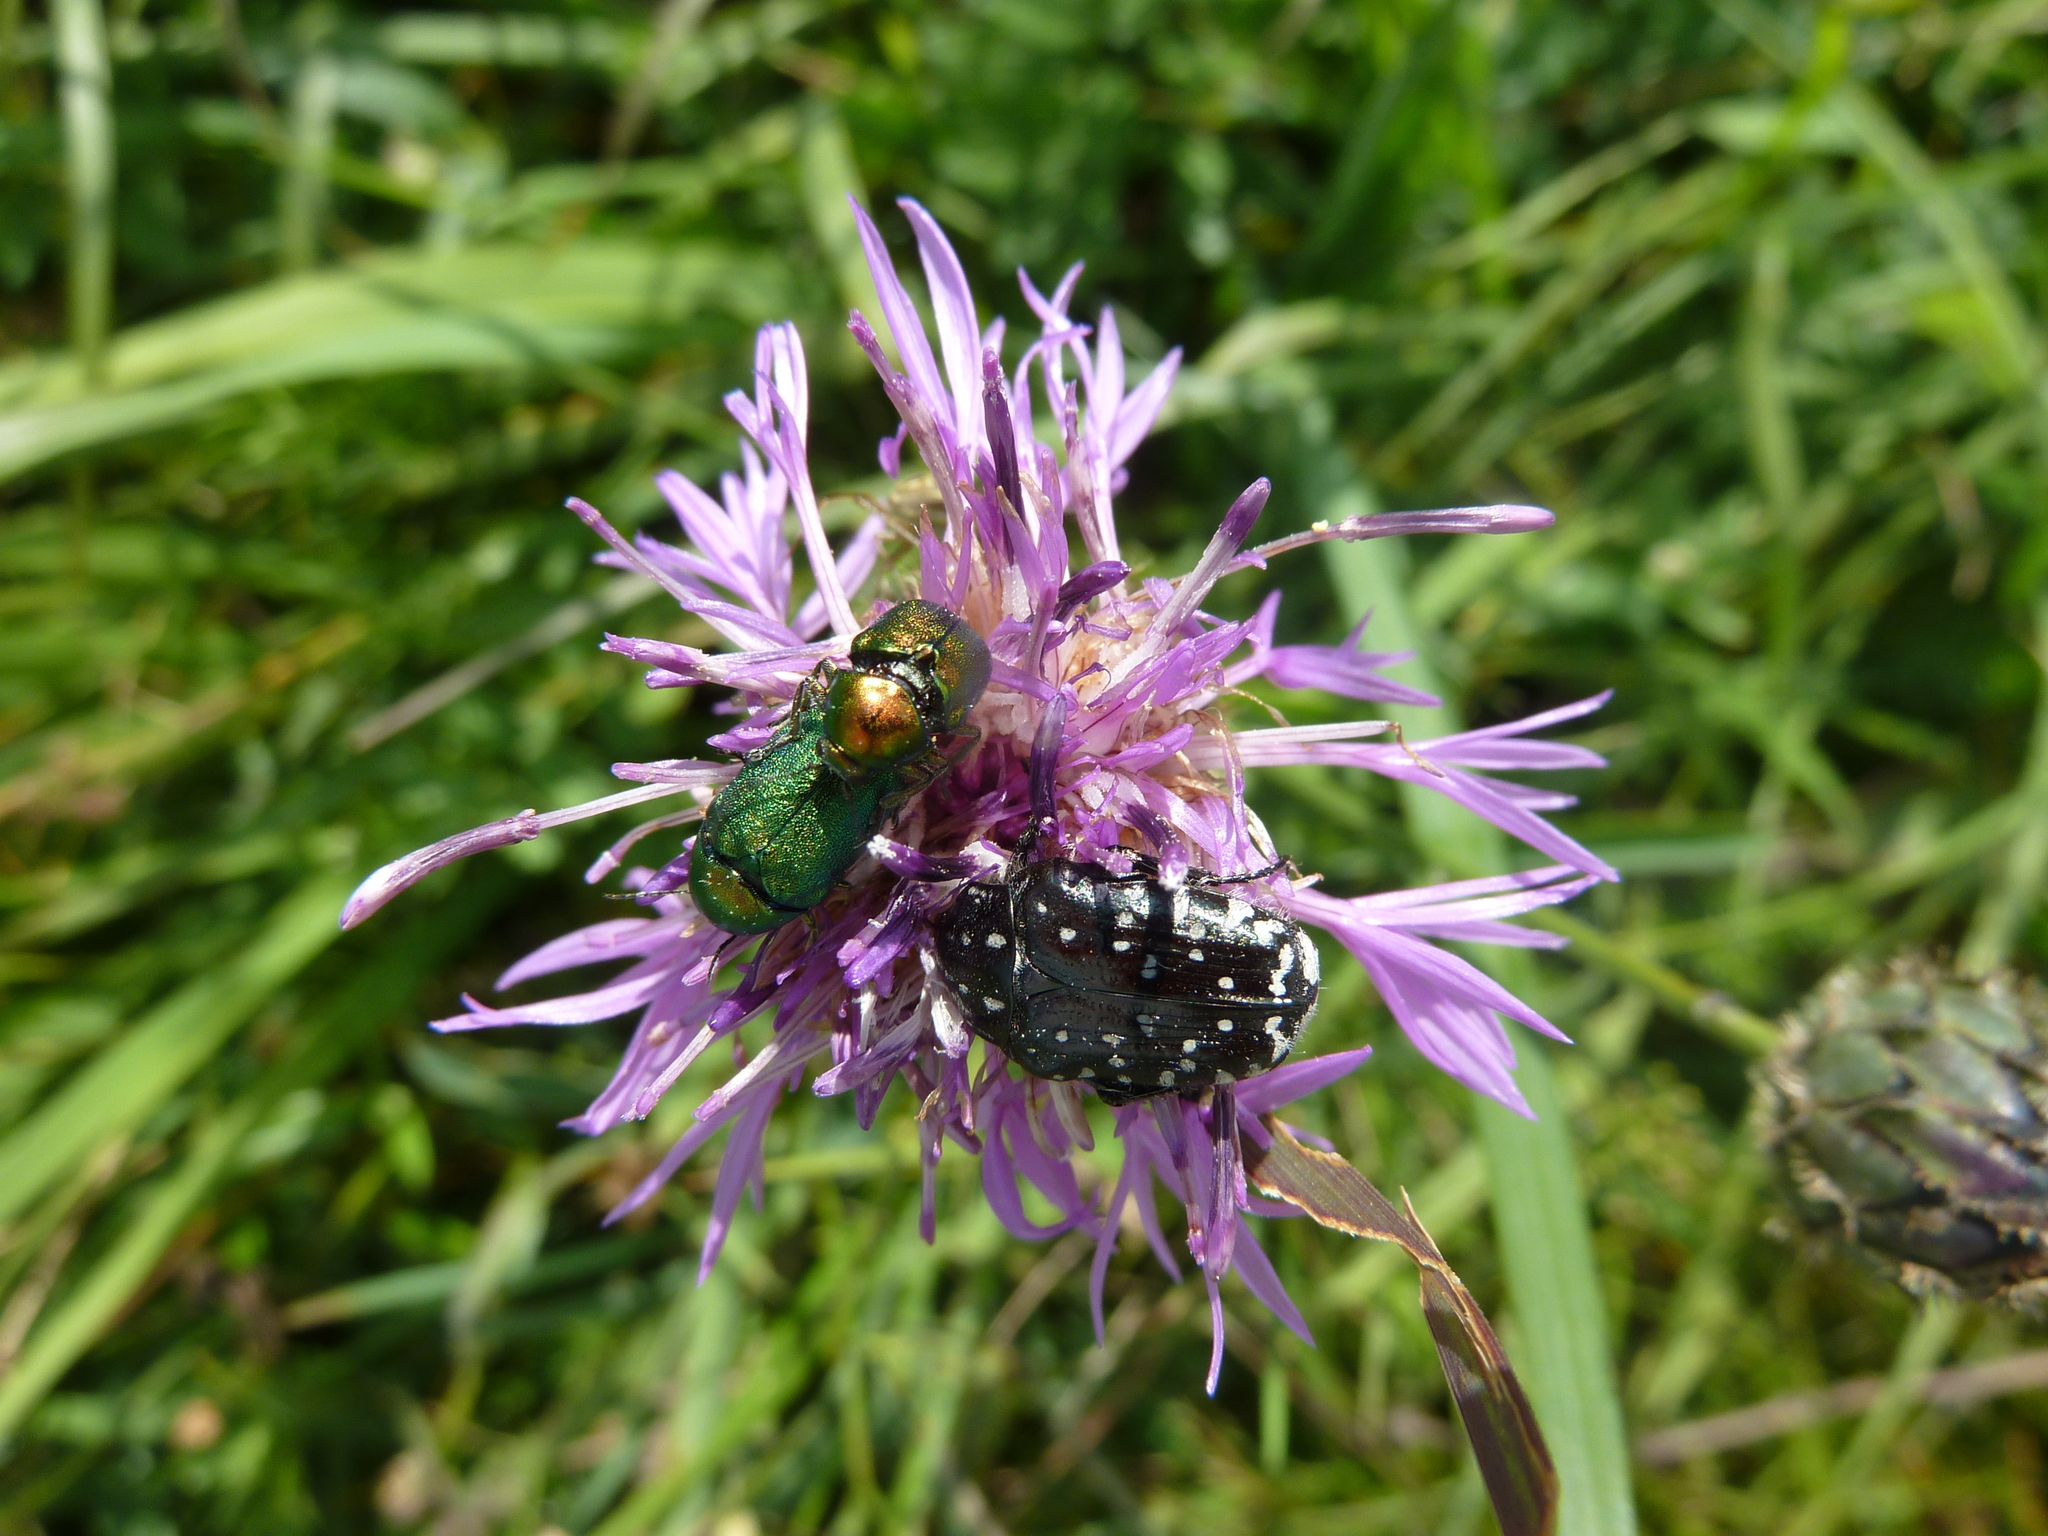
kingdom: Animalia
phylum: Arthropoda
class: Insecta
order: Coleoptera
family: Scarabaeidae
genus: Oxythyrea
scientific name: Oxythyrea funesta
